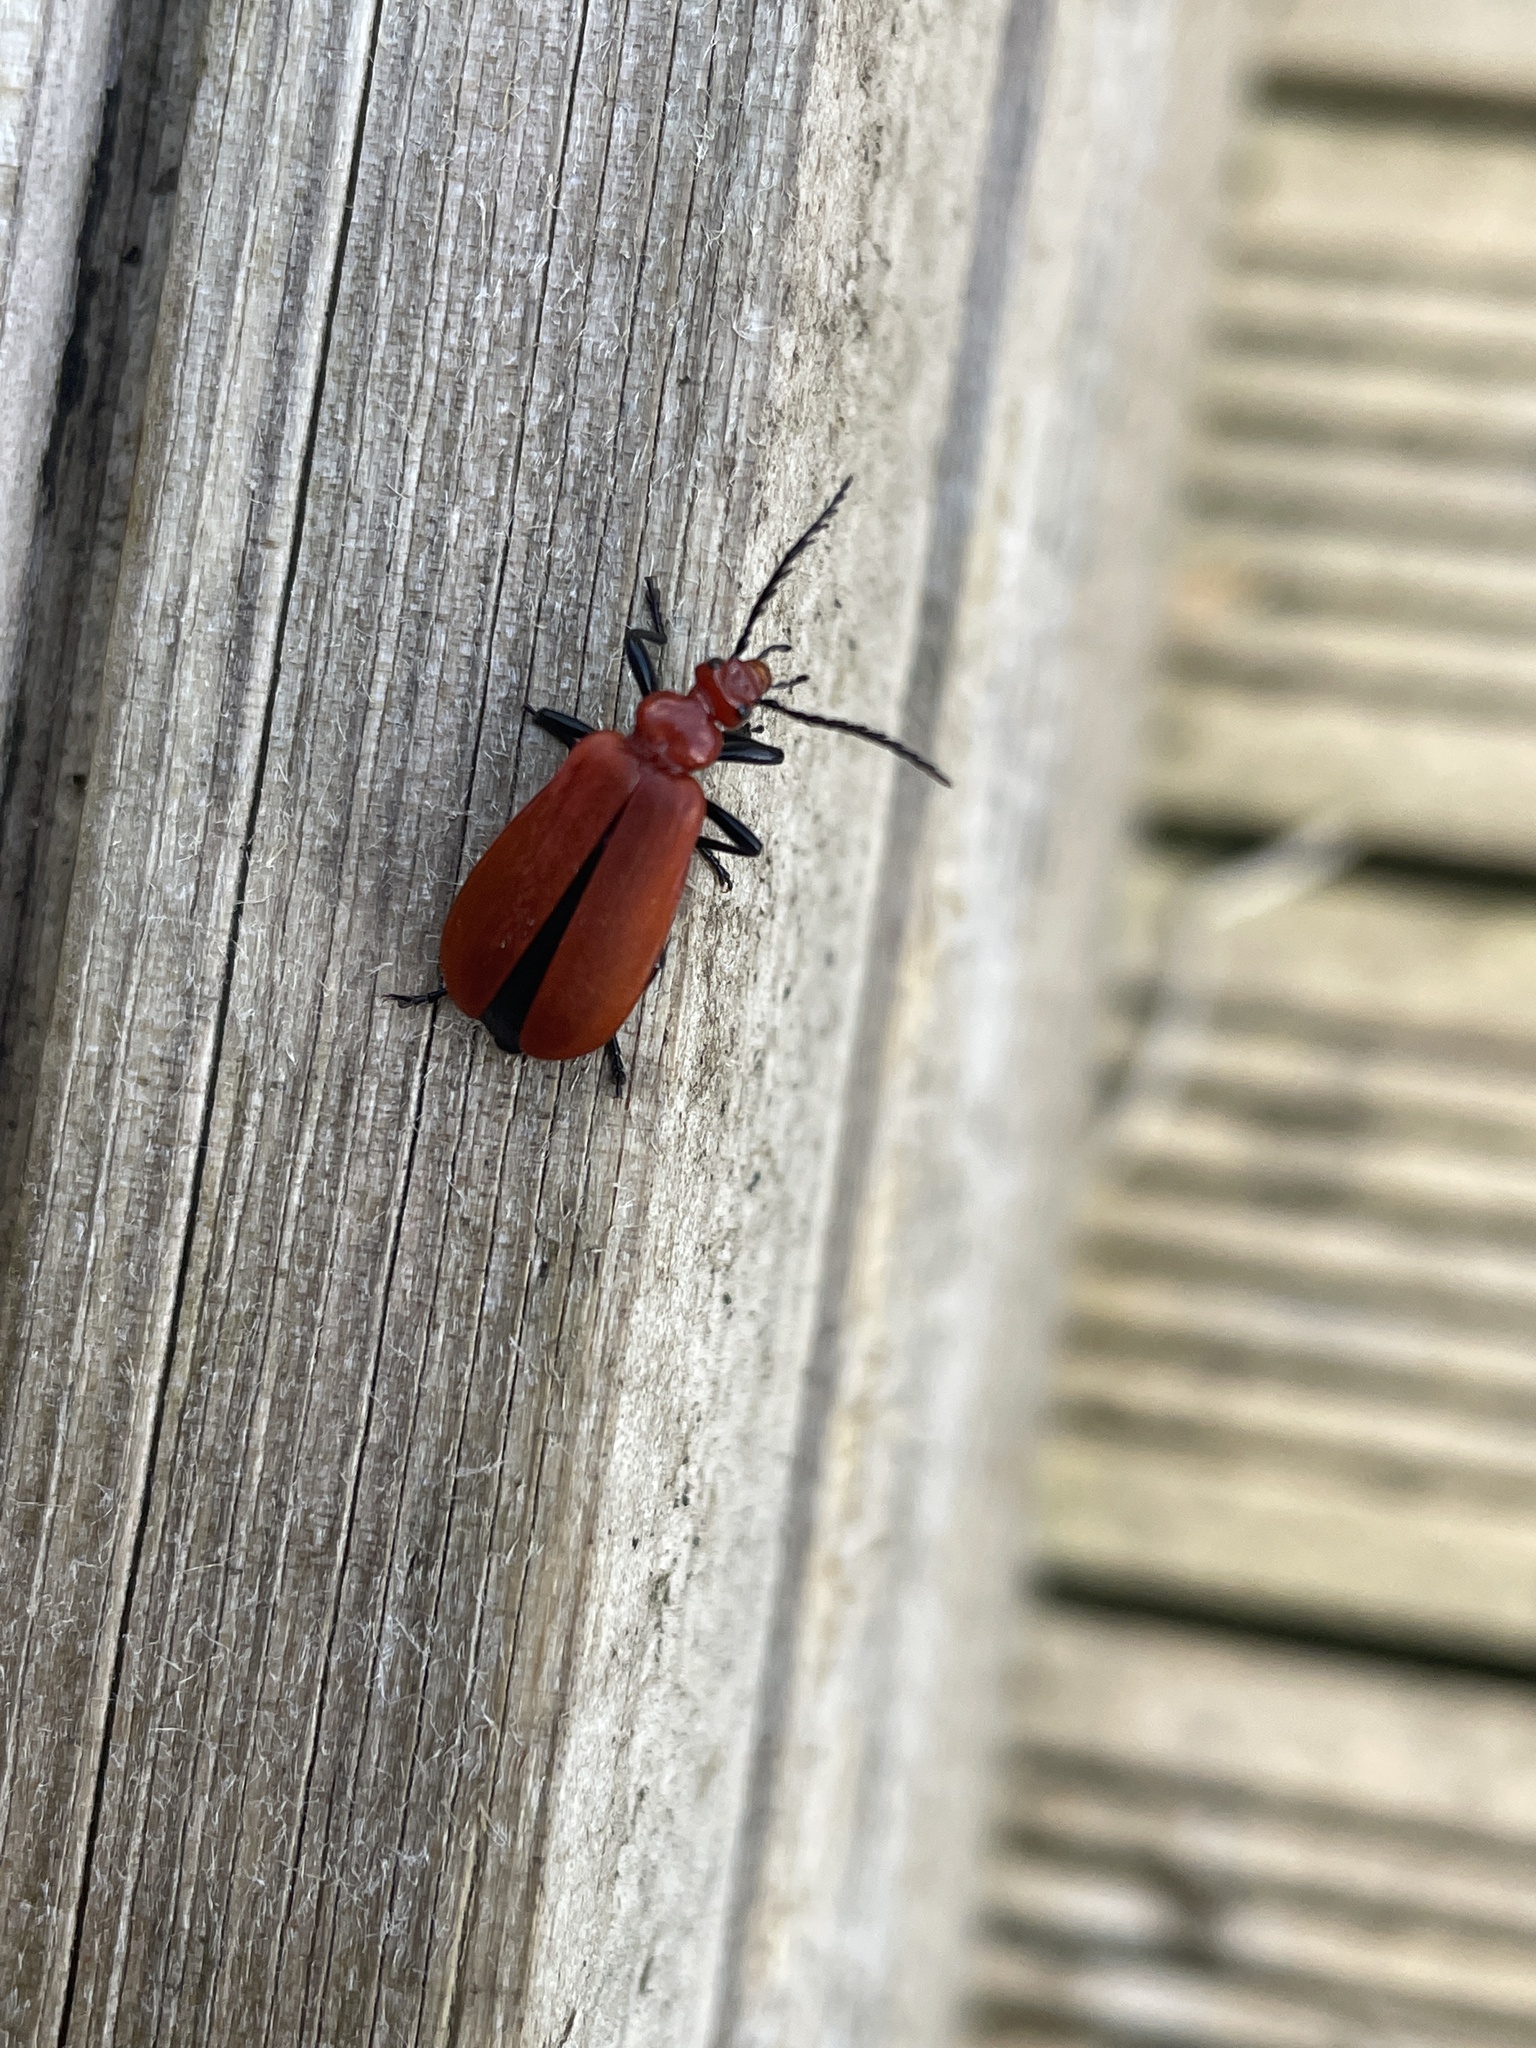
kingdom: Animalia
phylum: Arthropoda
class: Insecta
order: Coleoptera
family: Pyrochroidae
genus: Pyrochroa
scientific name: Pyrochroa serraticornis
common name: Red-headed cardinal beetle
